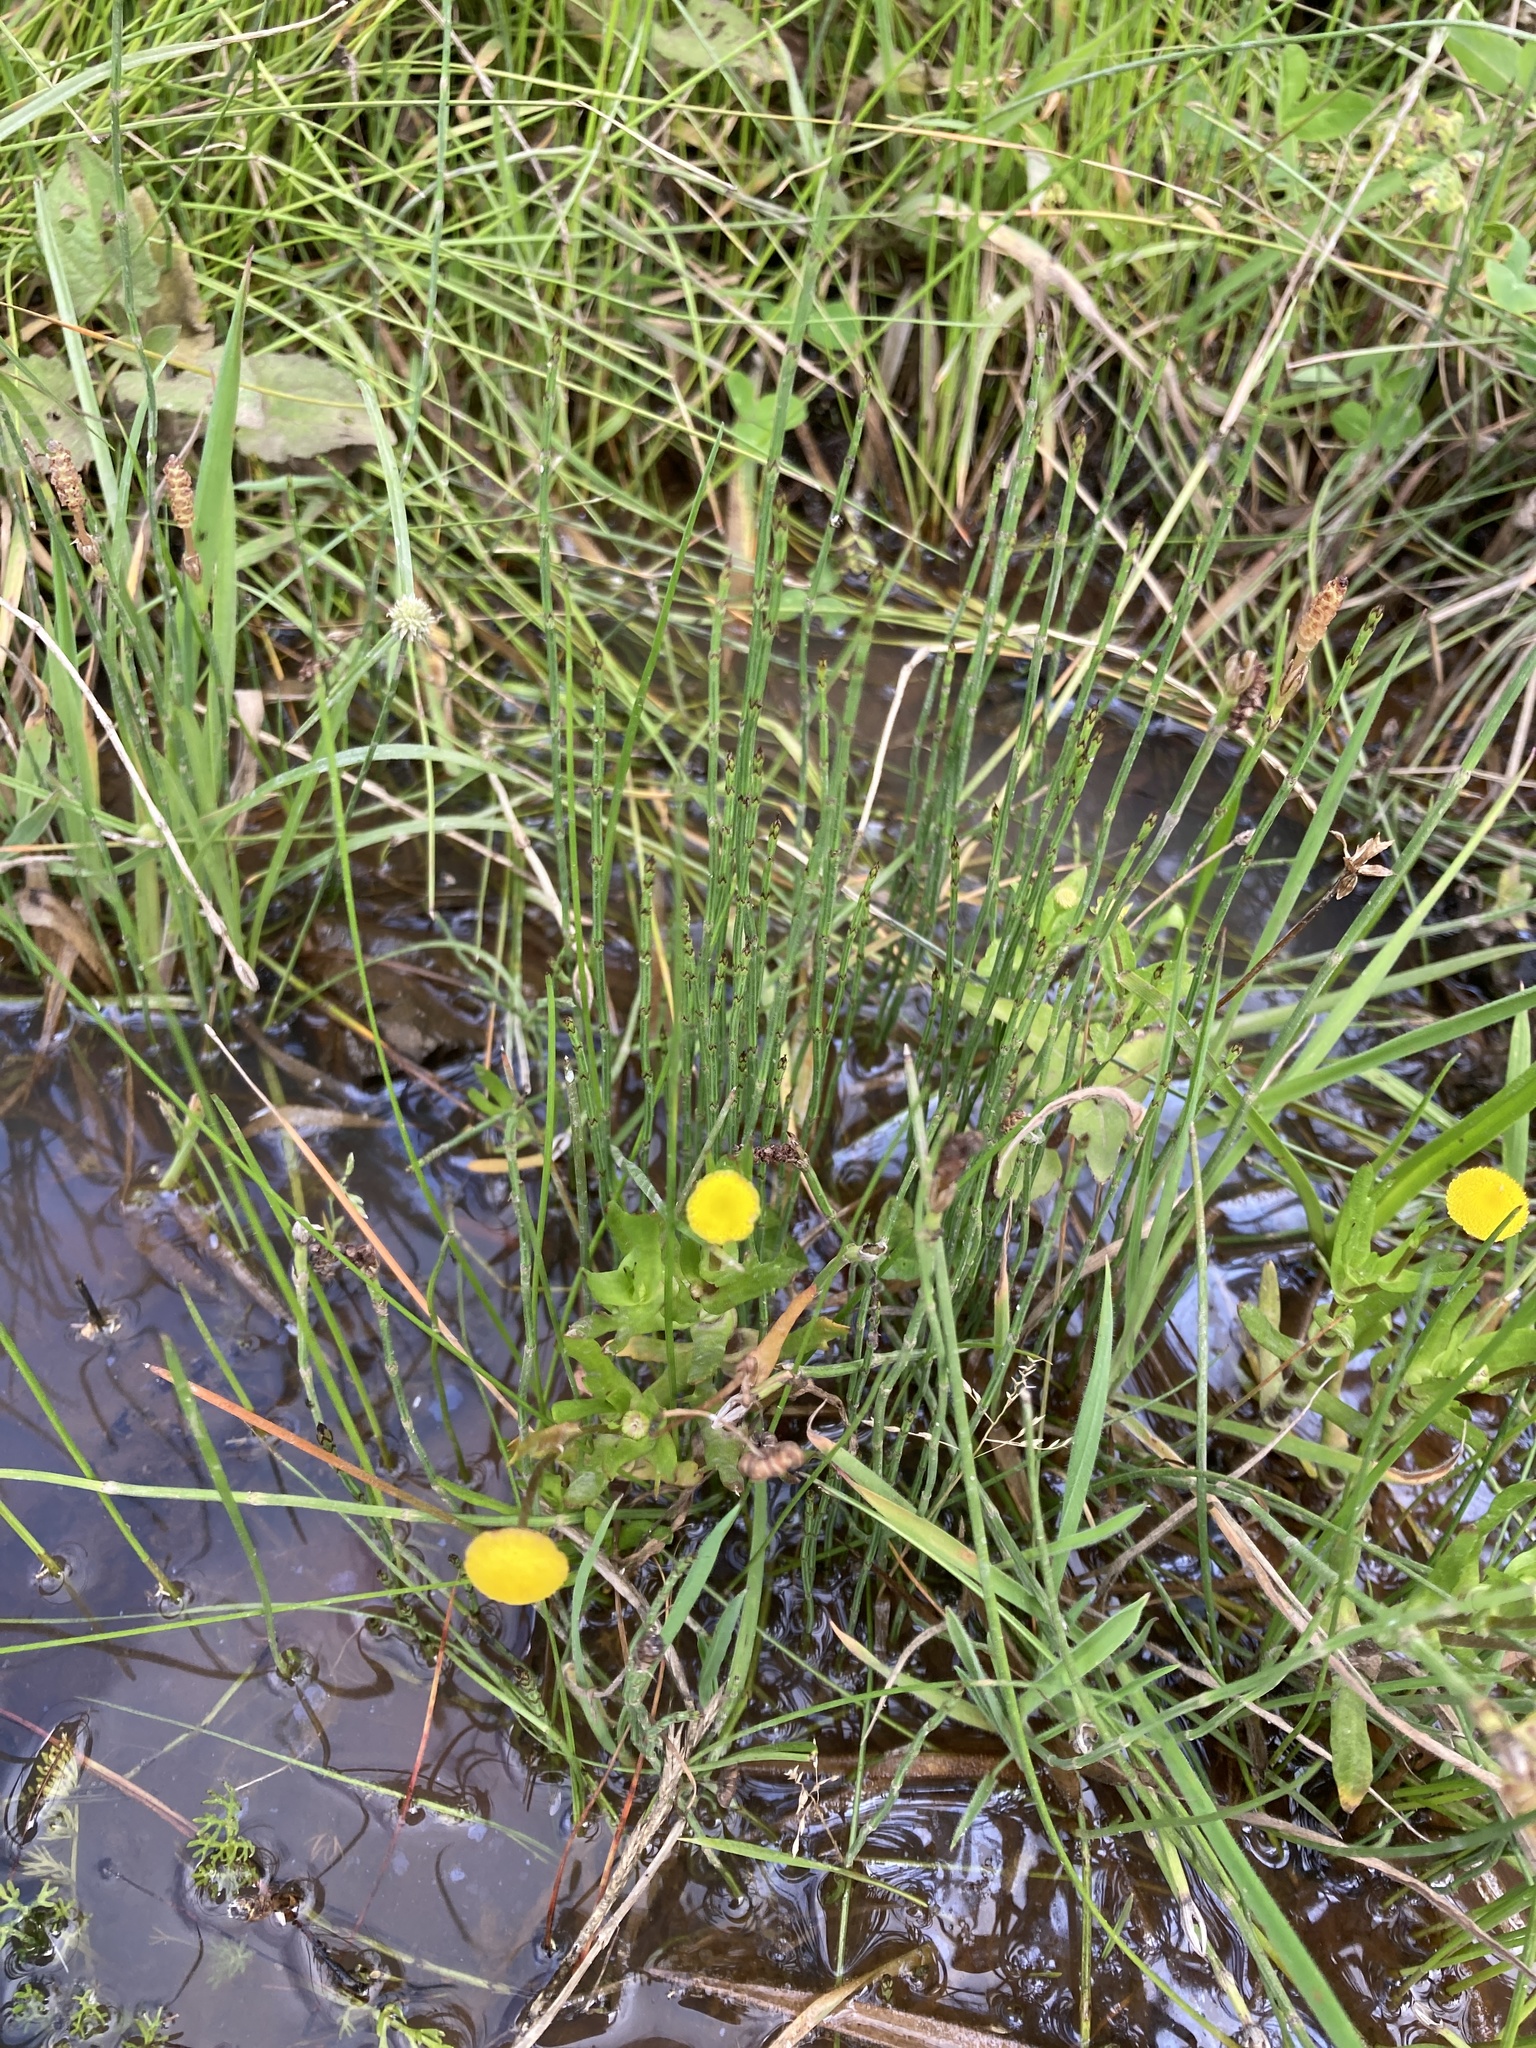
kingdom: Plantae
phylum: Tracheophyta
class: Magnoliopsida
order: Asterales
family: Asteraceae
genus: Cotula
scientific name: Cotula coronopifolia
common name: Buttonweed
